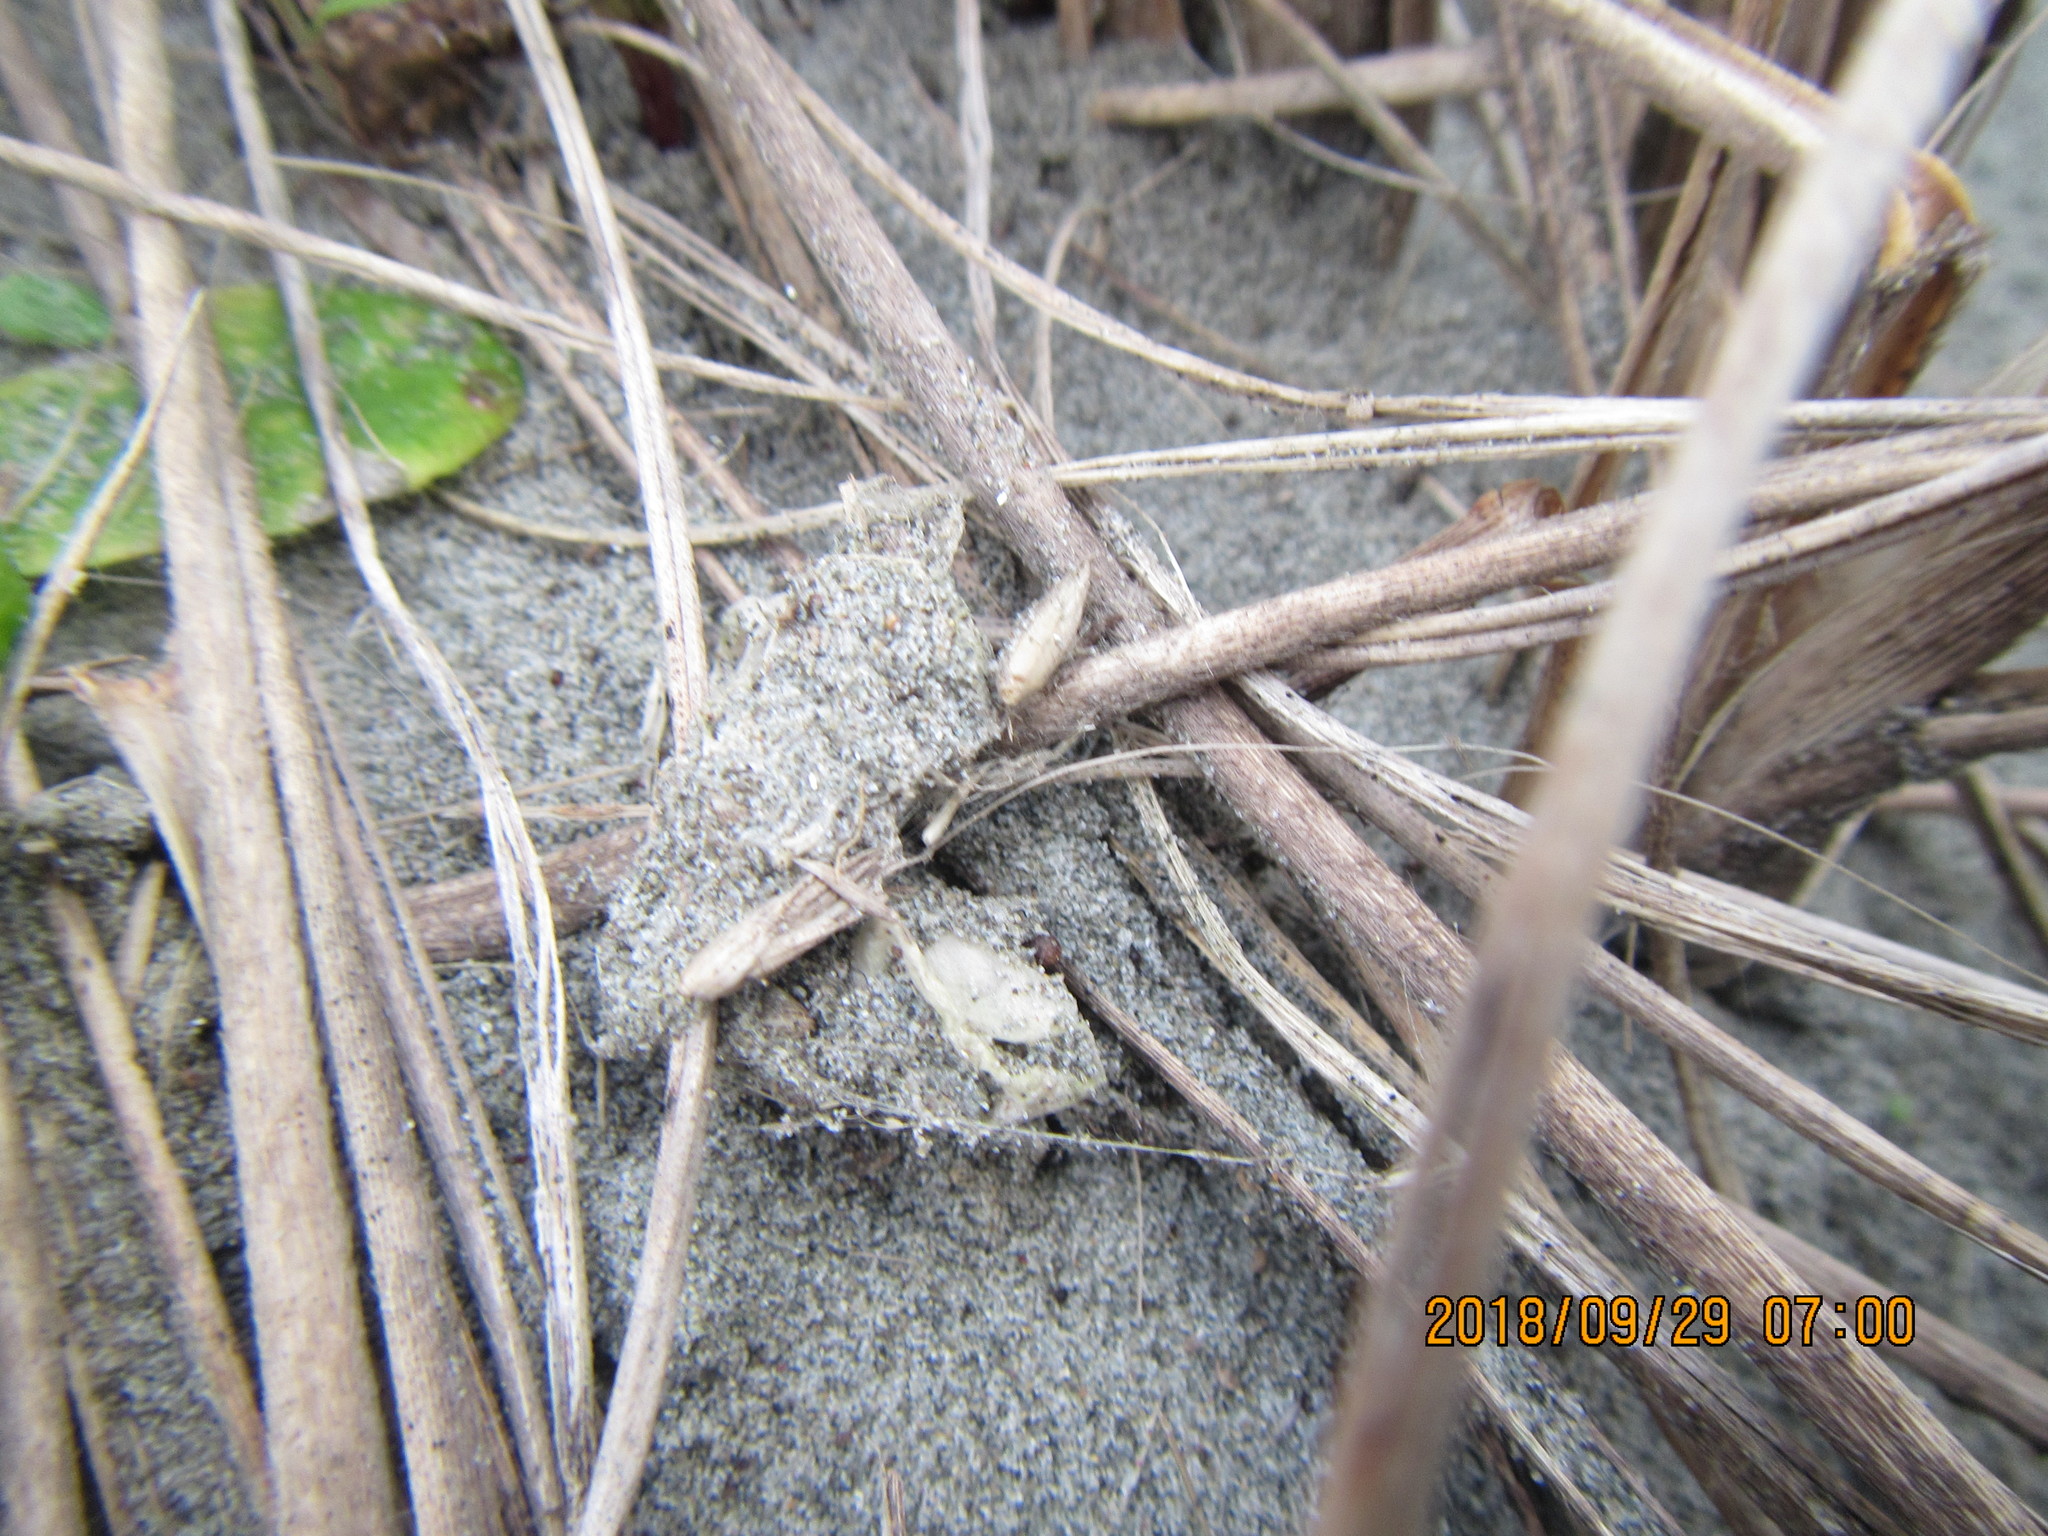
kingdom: Animalia
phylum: Arthropoda
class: Arachnida
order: Araneae
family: Theridiidae
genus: Latrodectus
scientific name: Latrodectus katipo
